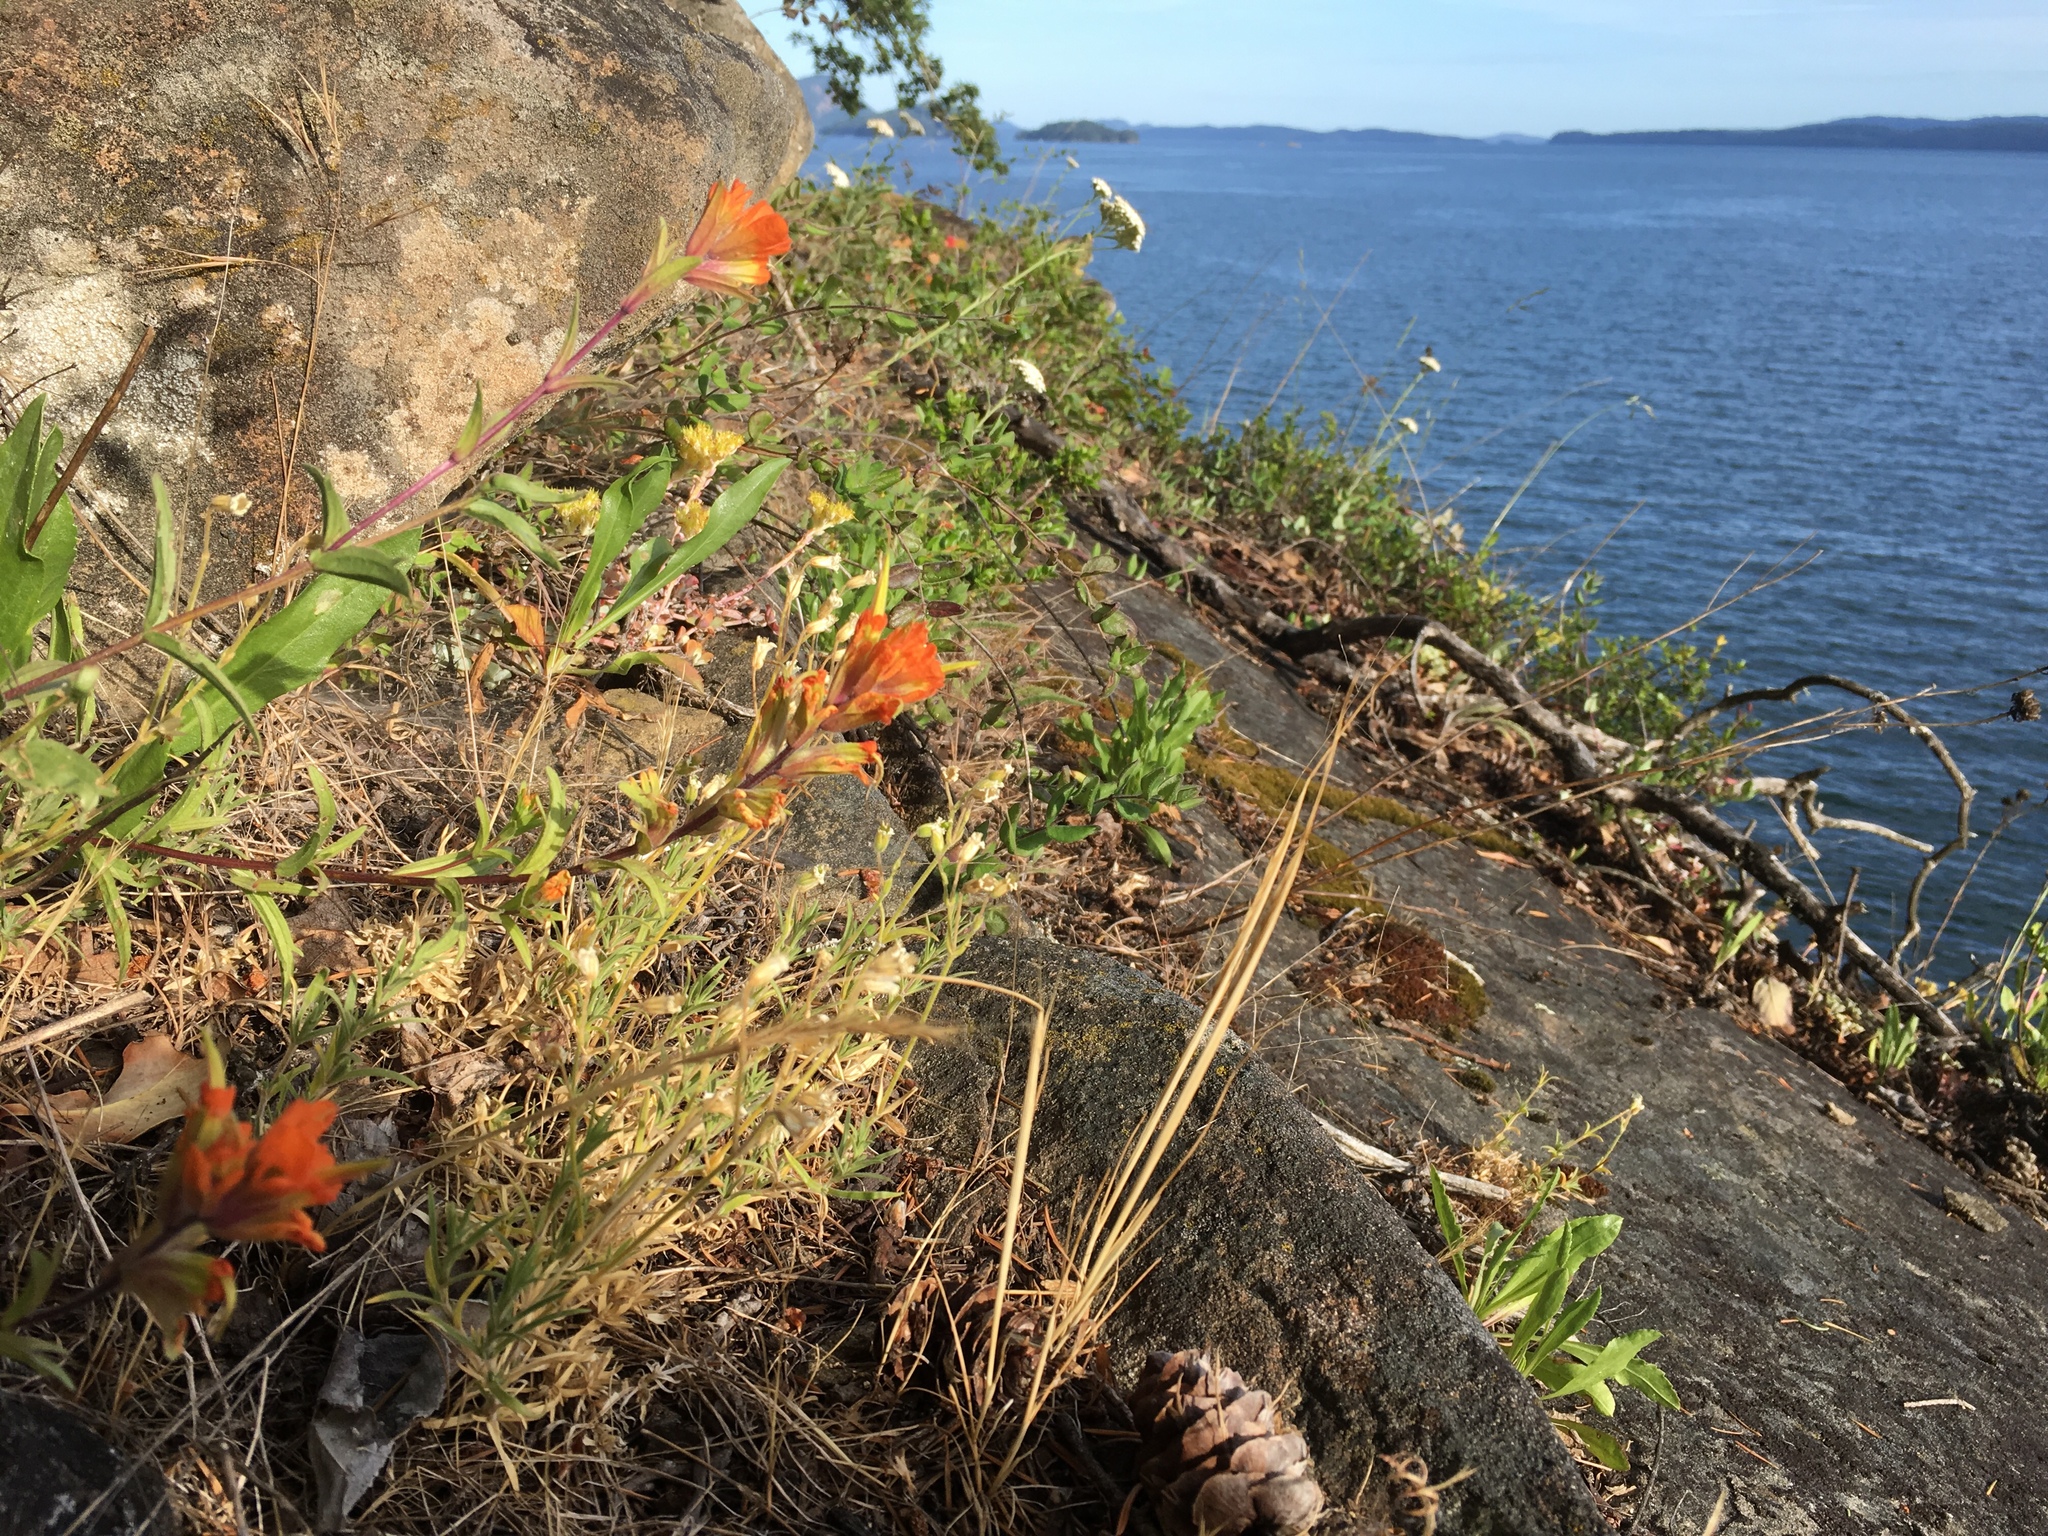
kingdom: Plantae
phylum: Tracheophyta
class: Magnoliopsida
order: Lamiales
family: Orobanchaceae
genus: Castilleja
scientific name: Castilleja hispida
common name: Bristly paintbrush
